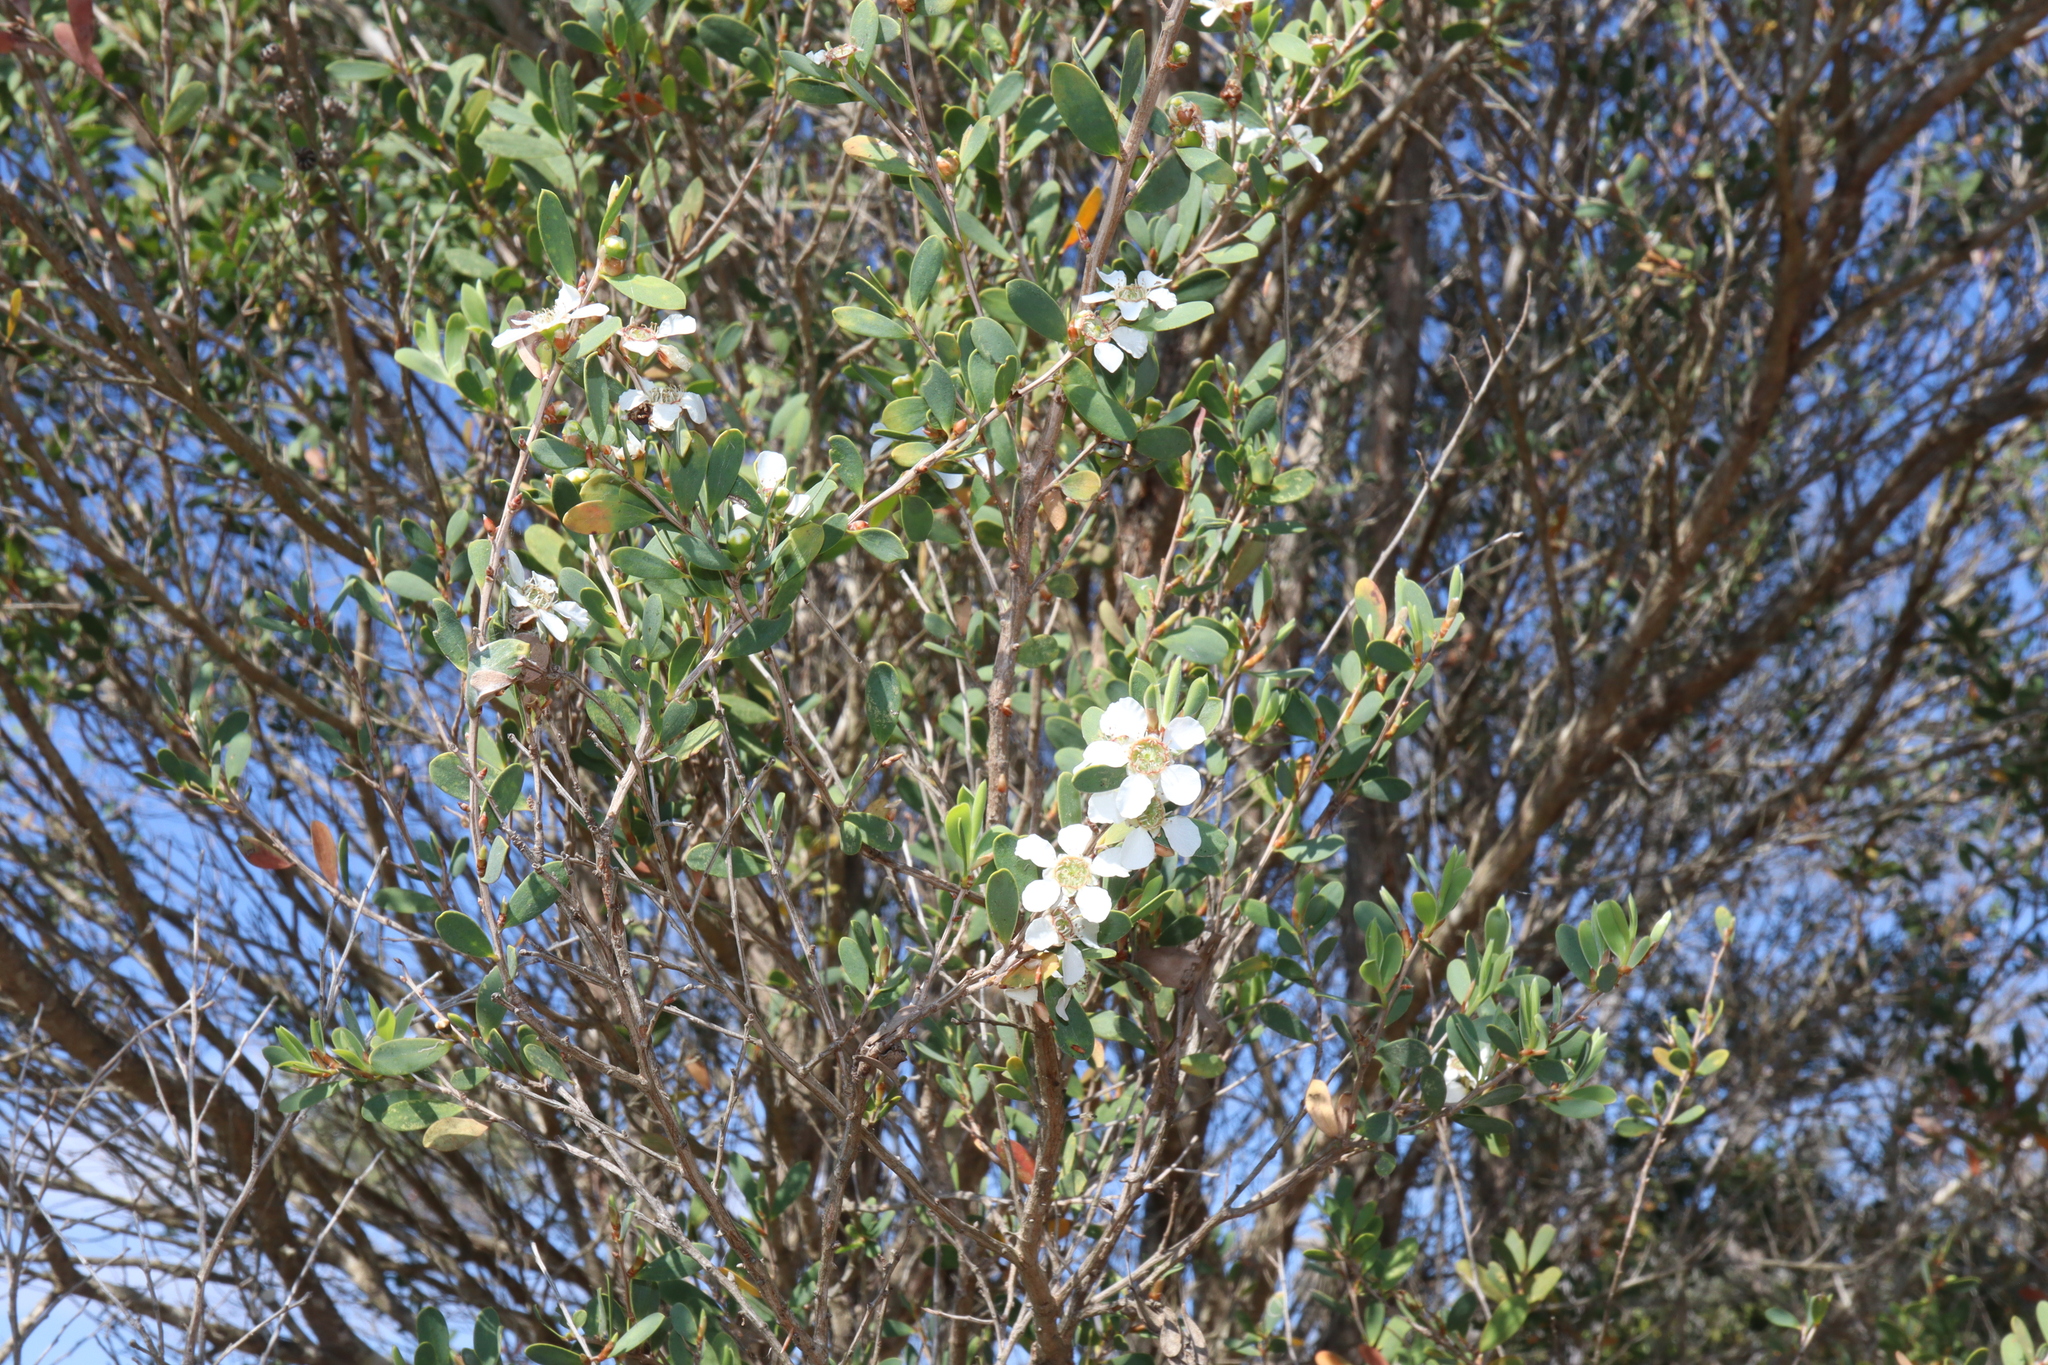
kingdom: Plantae
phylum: Tracheophyta
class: Magnoliopsida
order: Myrtales
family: Myrtaceae
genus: Leptospermum
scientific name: Leptospermum laevigatum
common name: Australian teatree
